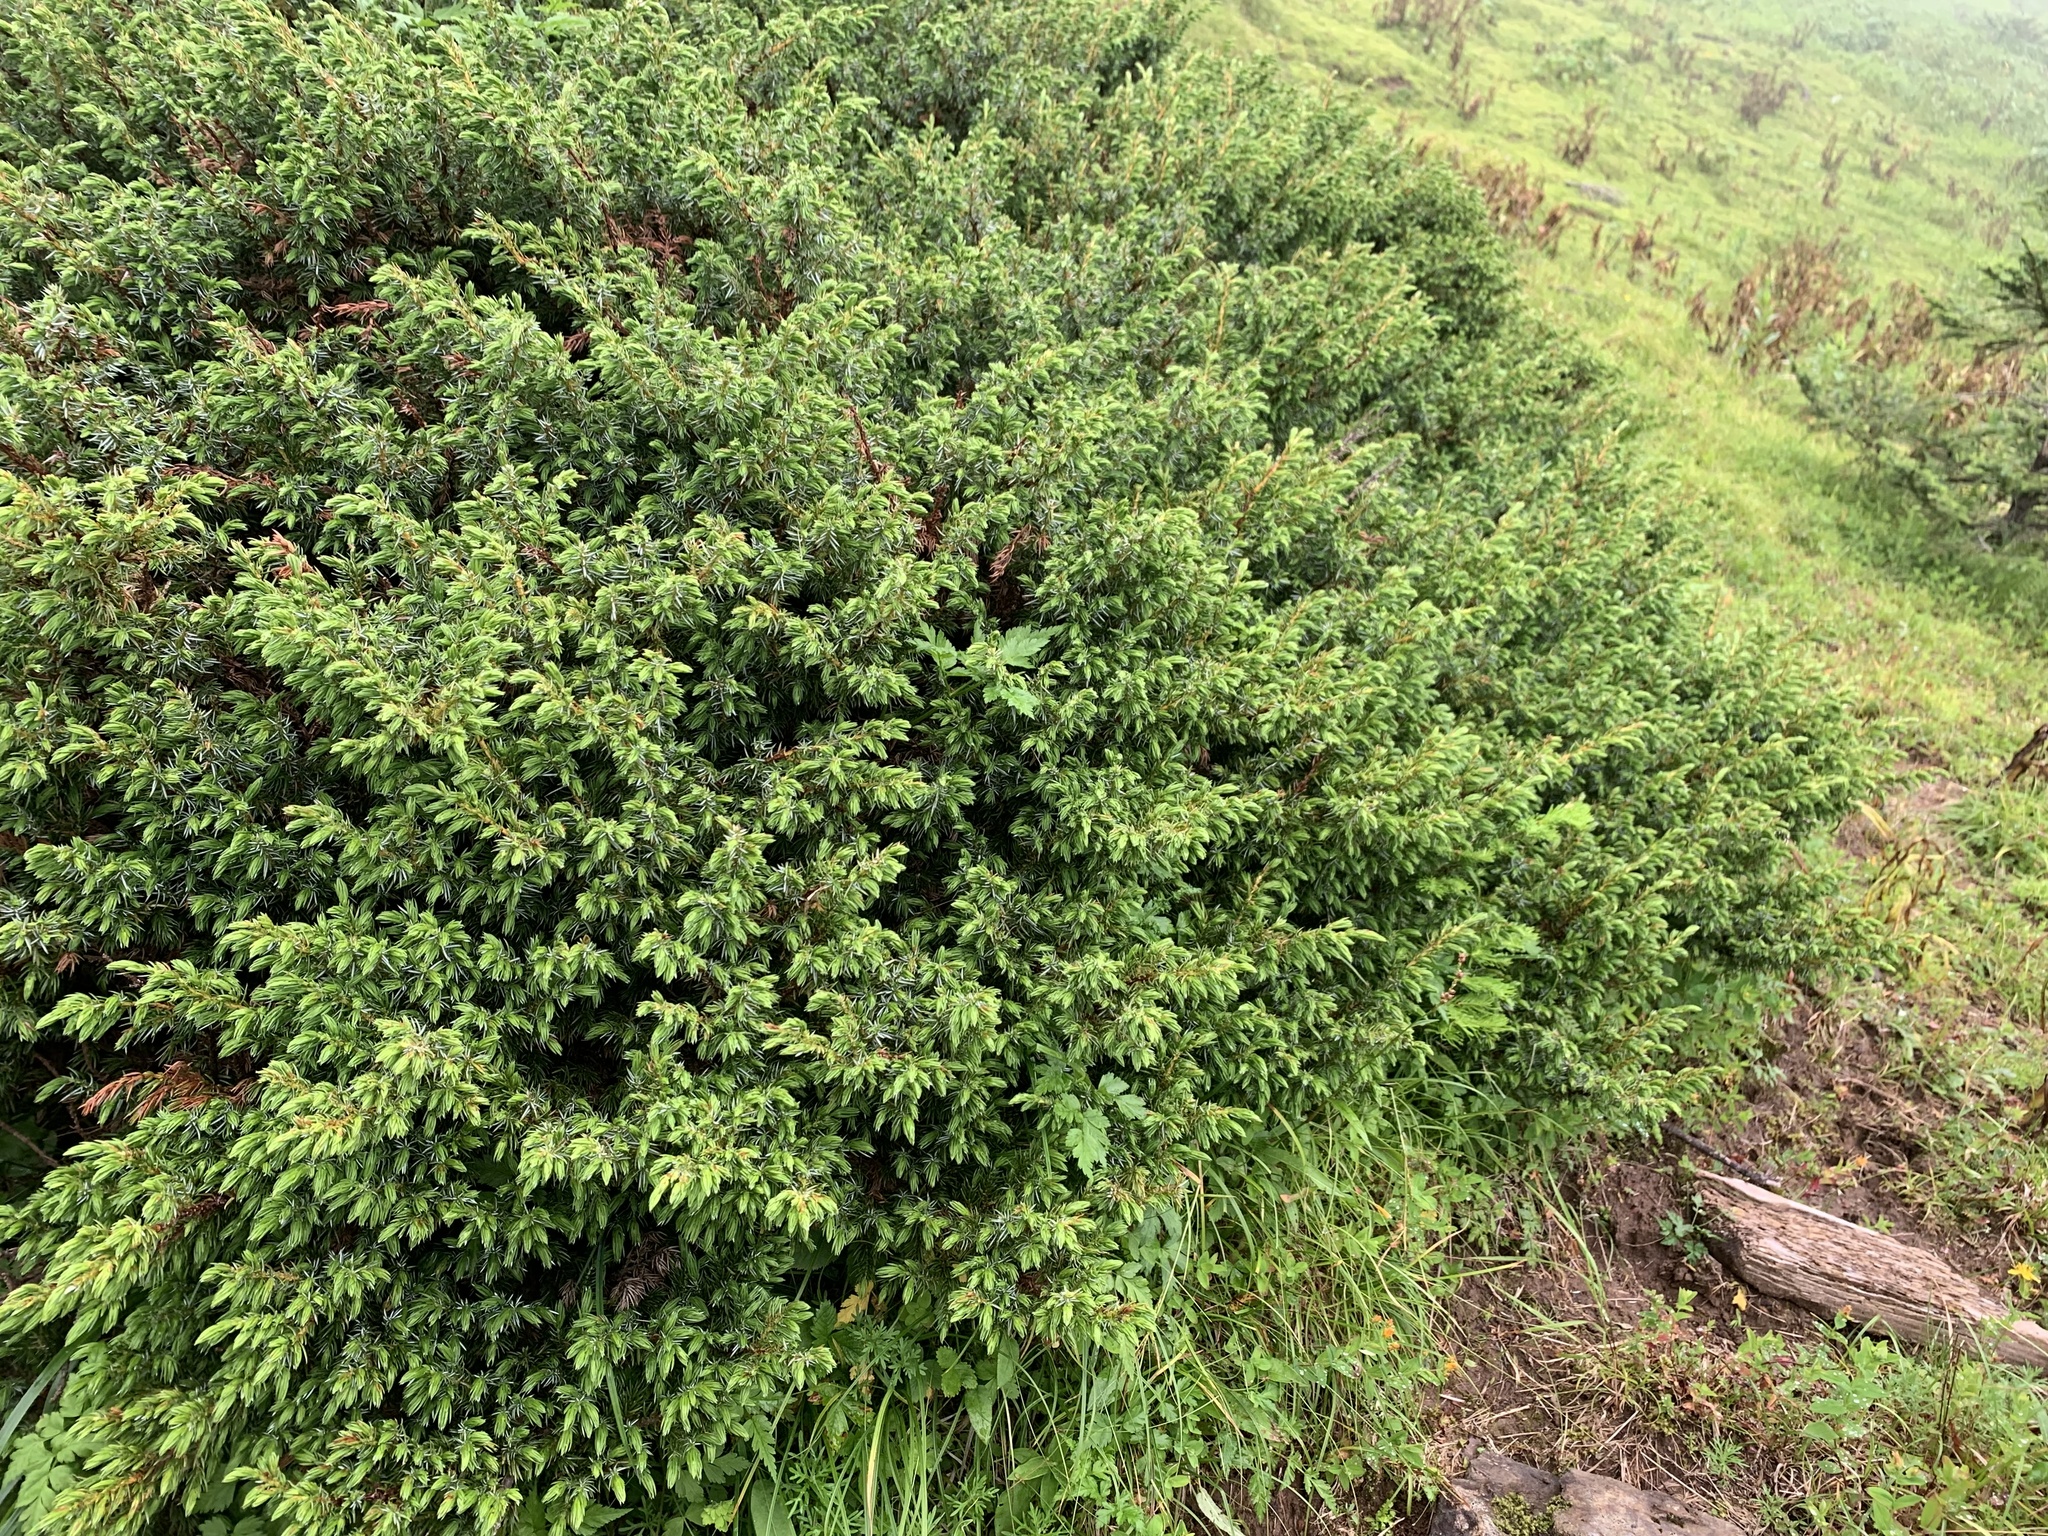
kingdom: Plantae
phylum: Tracheophyta
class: Pinopsida
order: Pinales
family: Cupressaceae
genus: Juniperus
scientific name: Juniperus communis
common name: Common juniper
